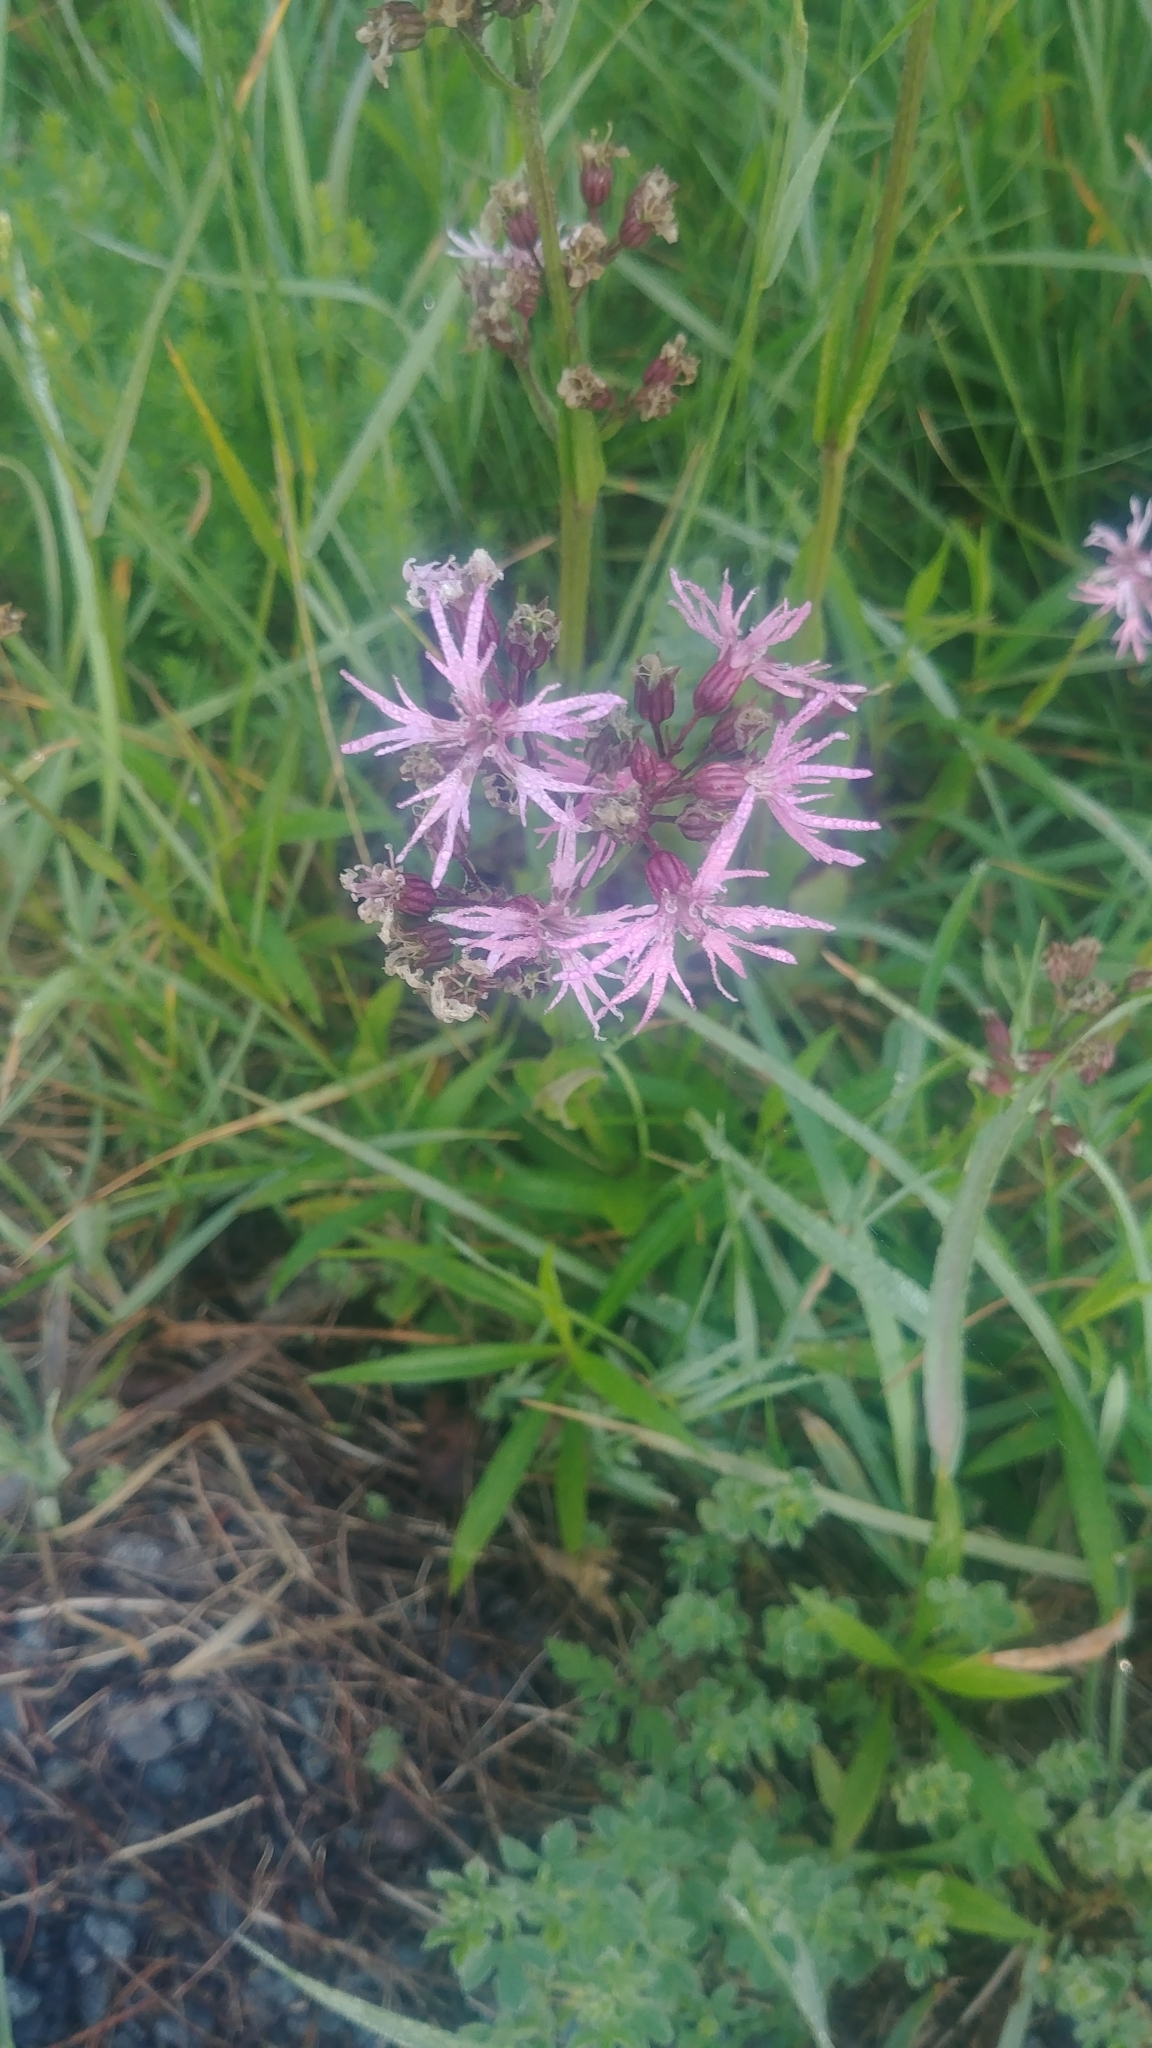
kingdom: Plantae
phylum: Tracheophyta
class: Magnoliopsida
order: Caryophyllales
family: Caryophyllaceae
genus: Silene
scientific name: Silene flos-cuculi
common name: Ragged-robin
